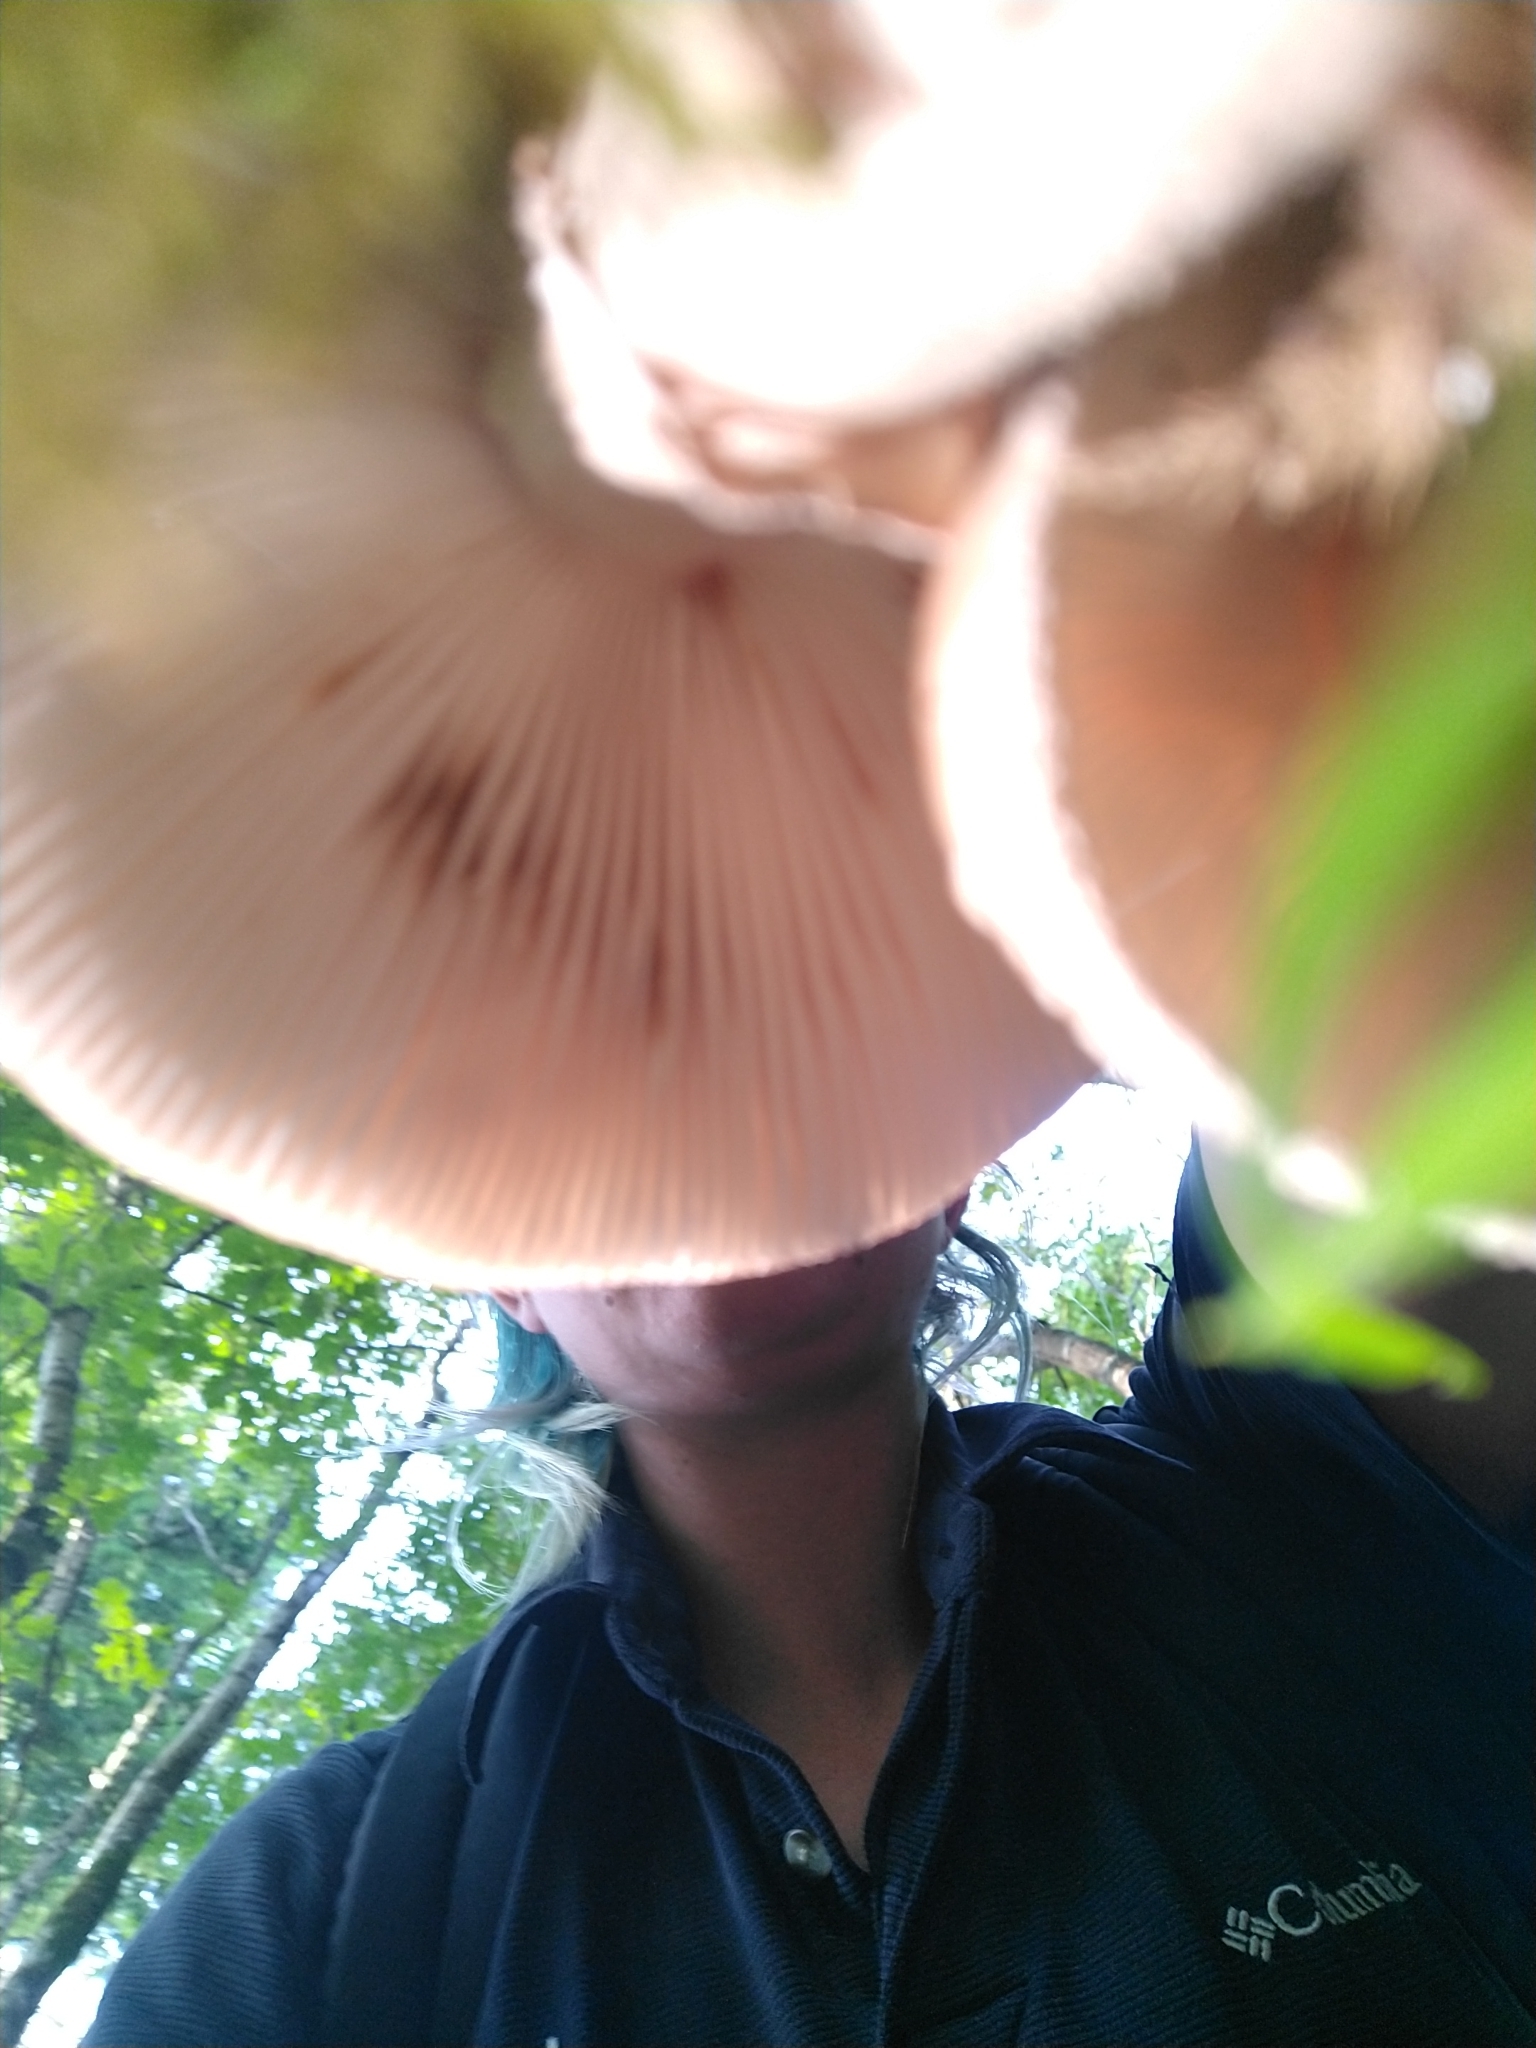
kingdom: Fungi
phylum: Basidiomycota
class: Agaricomycetes
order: Agaricales
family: Amanitaceae
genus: Amanita
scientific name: Amanita rubescens
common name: Blusher
